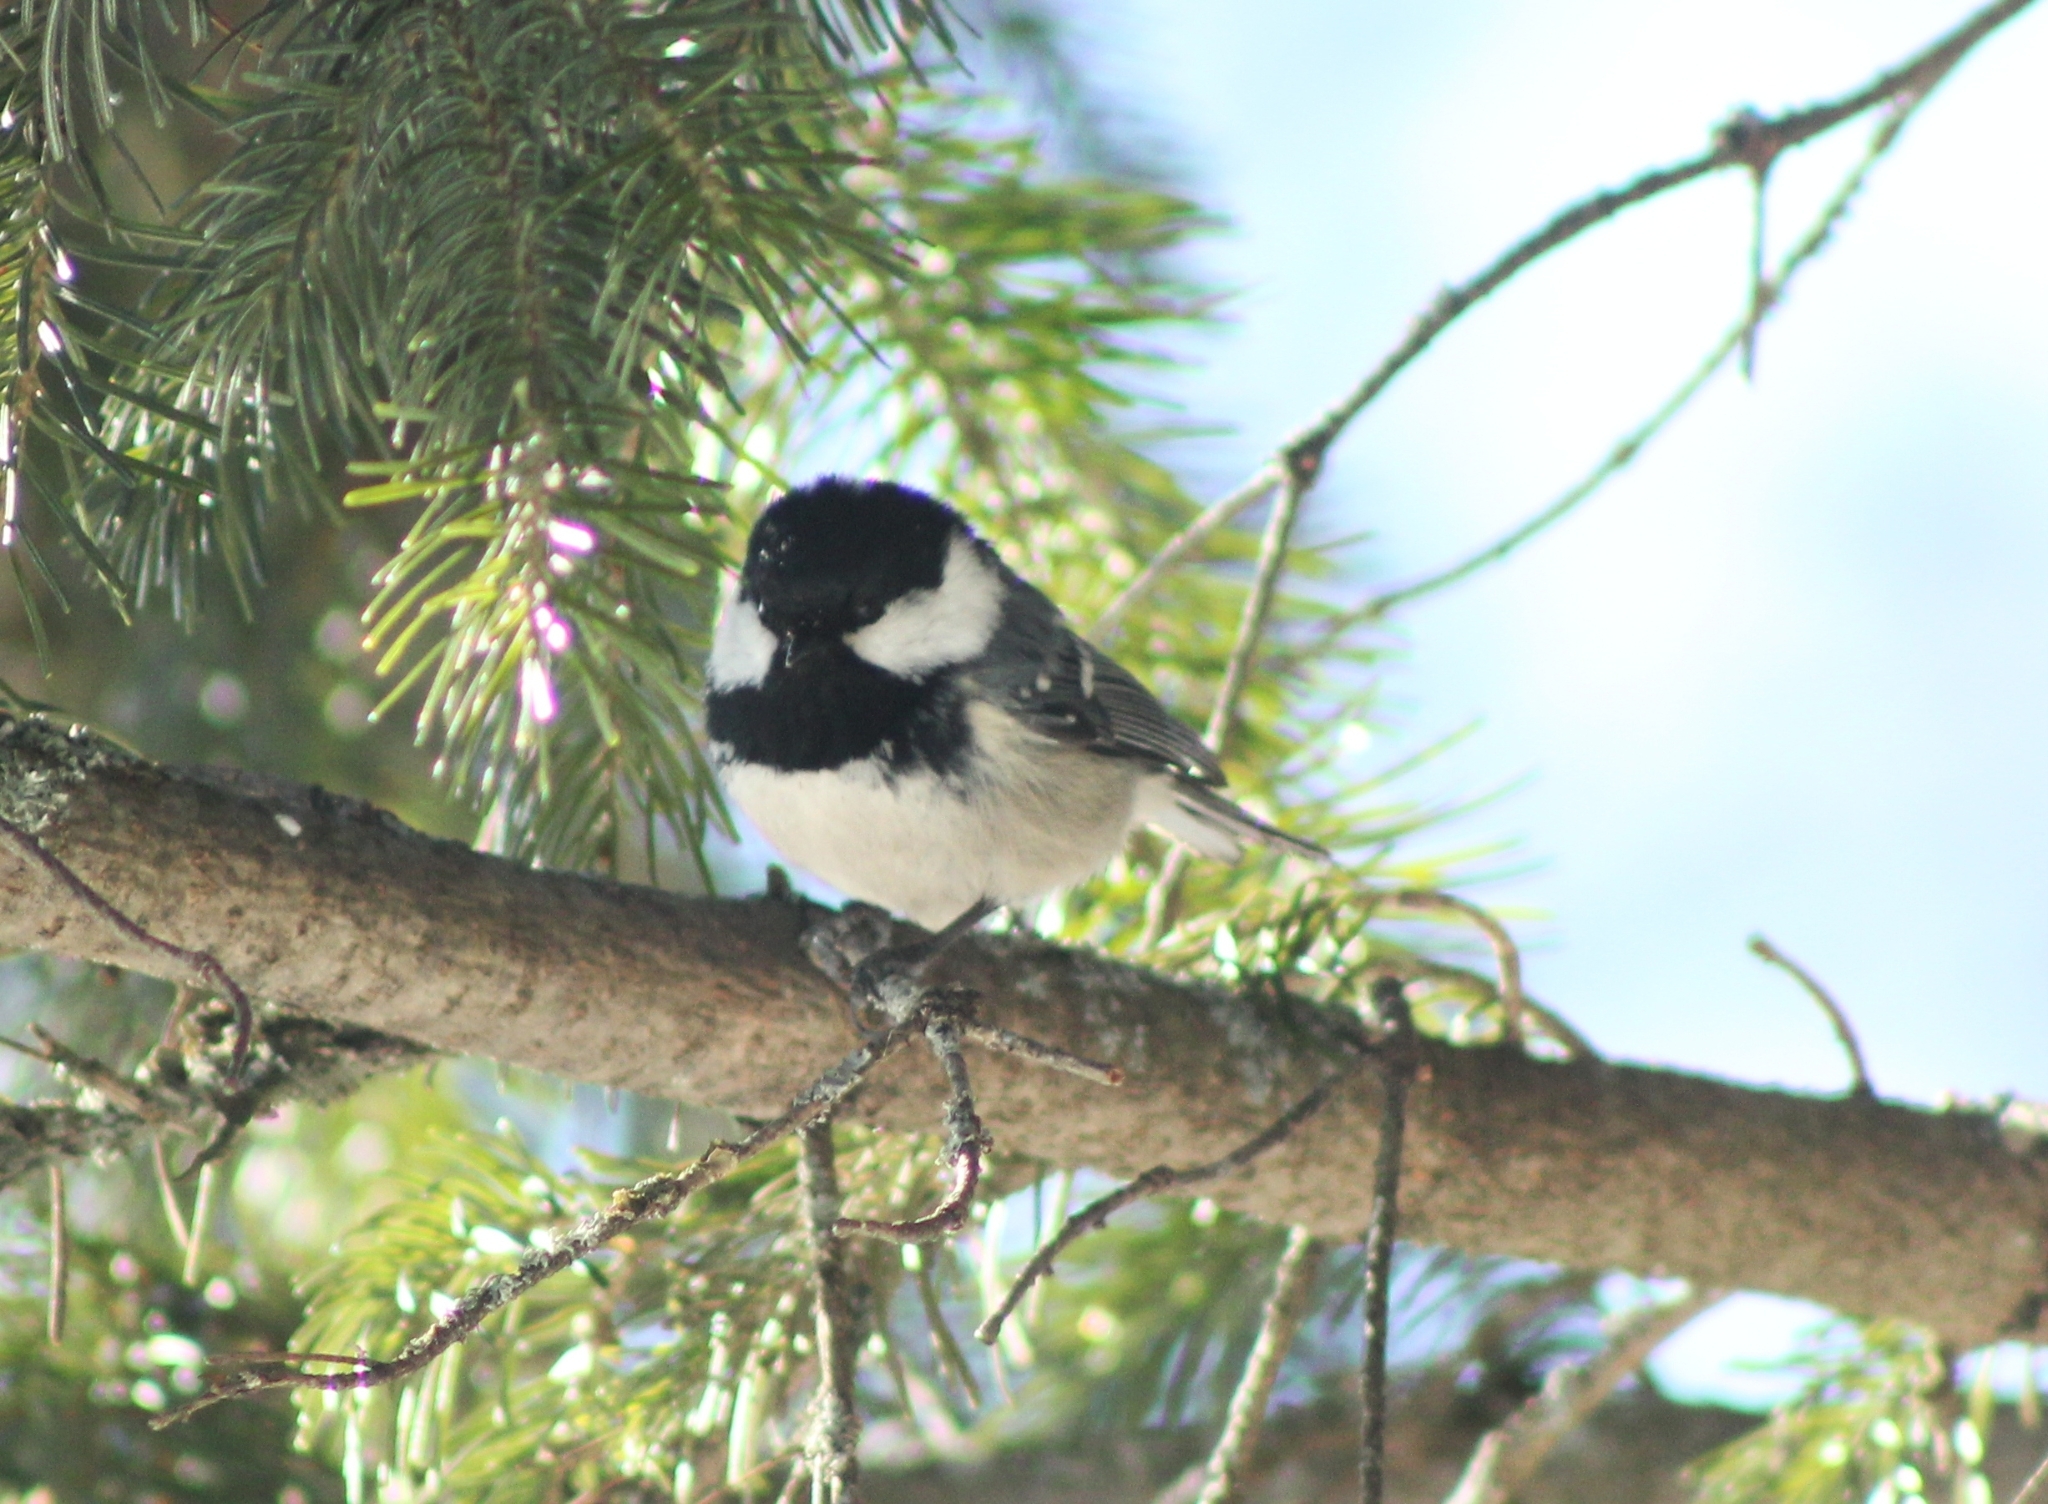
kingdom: Animalia
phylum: Chordata
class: Aves
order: Passeriformes
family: Paridae
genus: Periparus
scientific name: Periparus ater
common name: Coal tit
